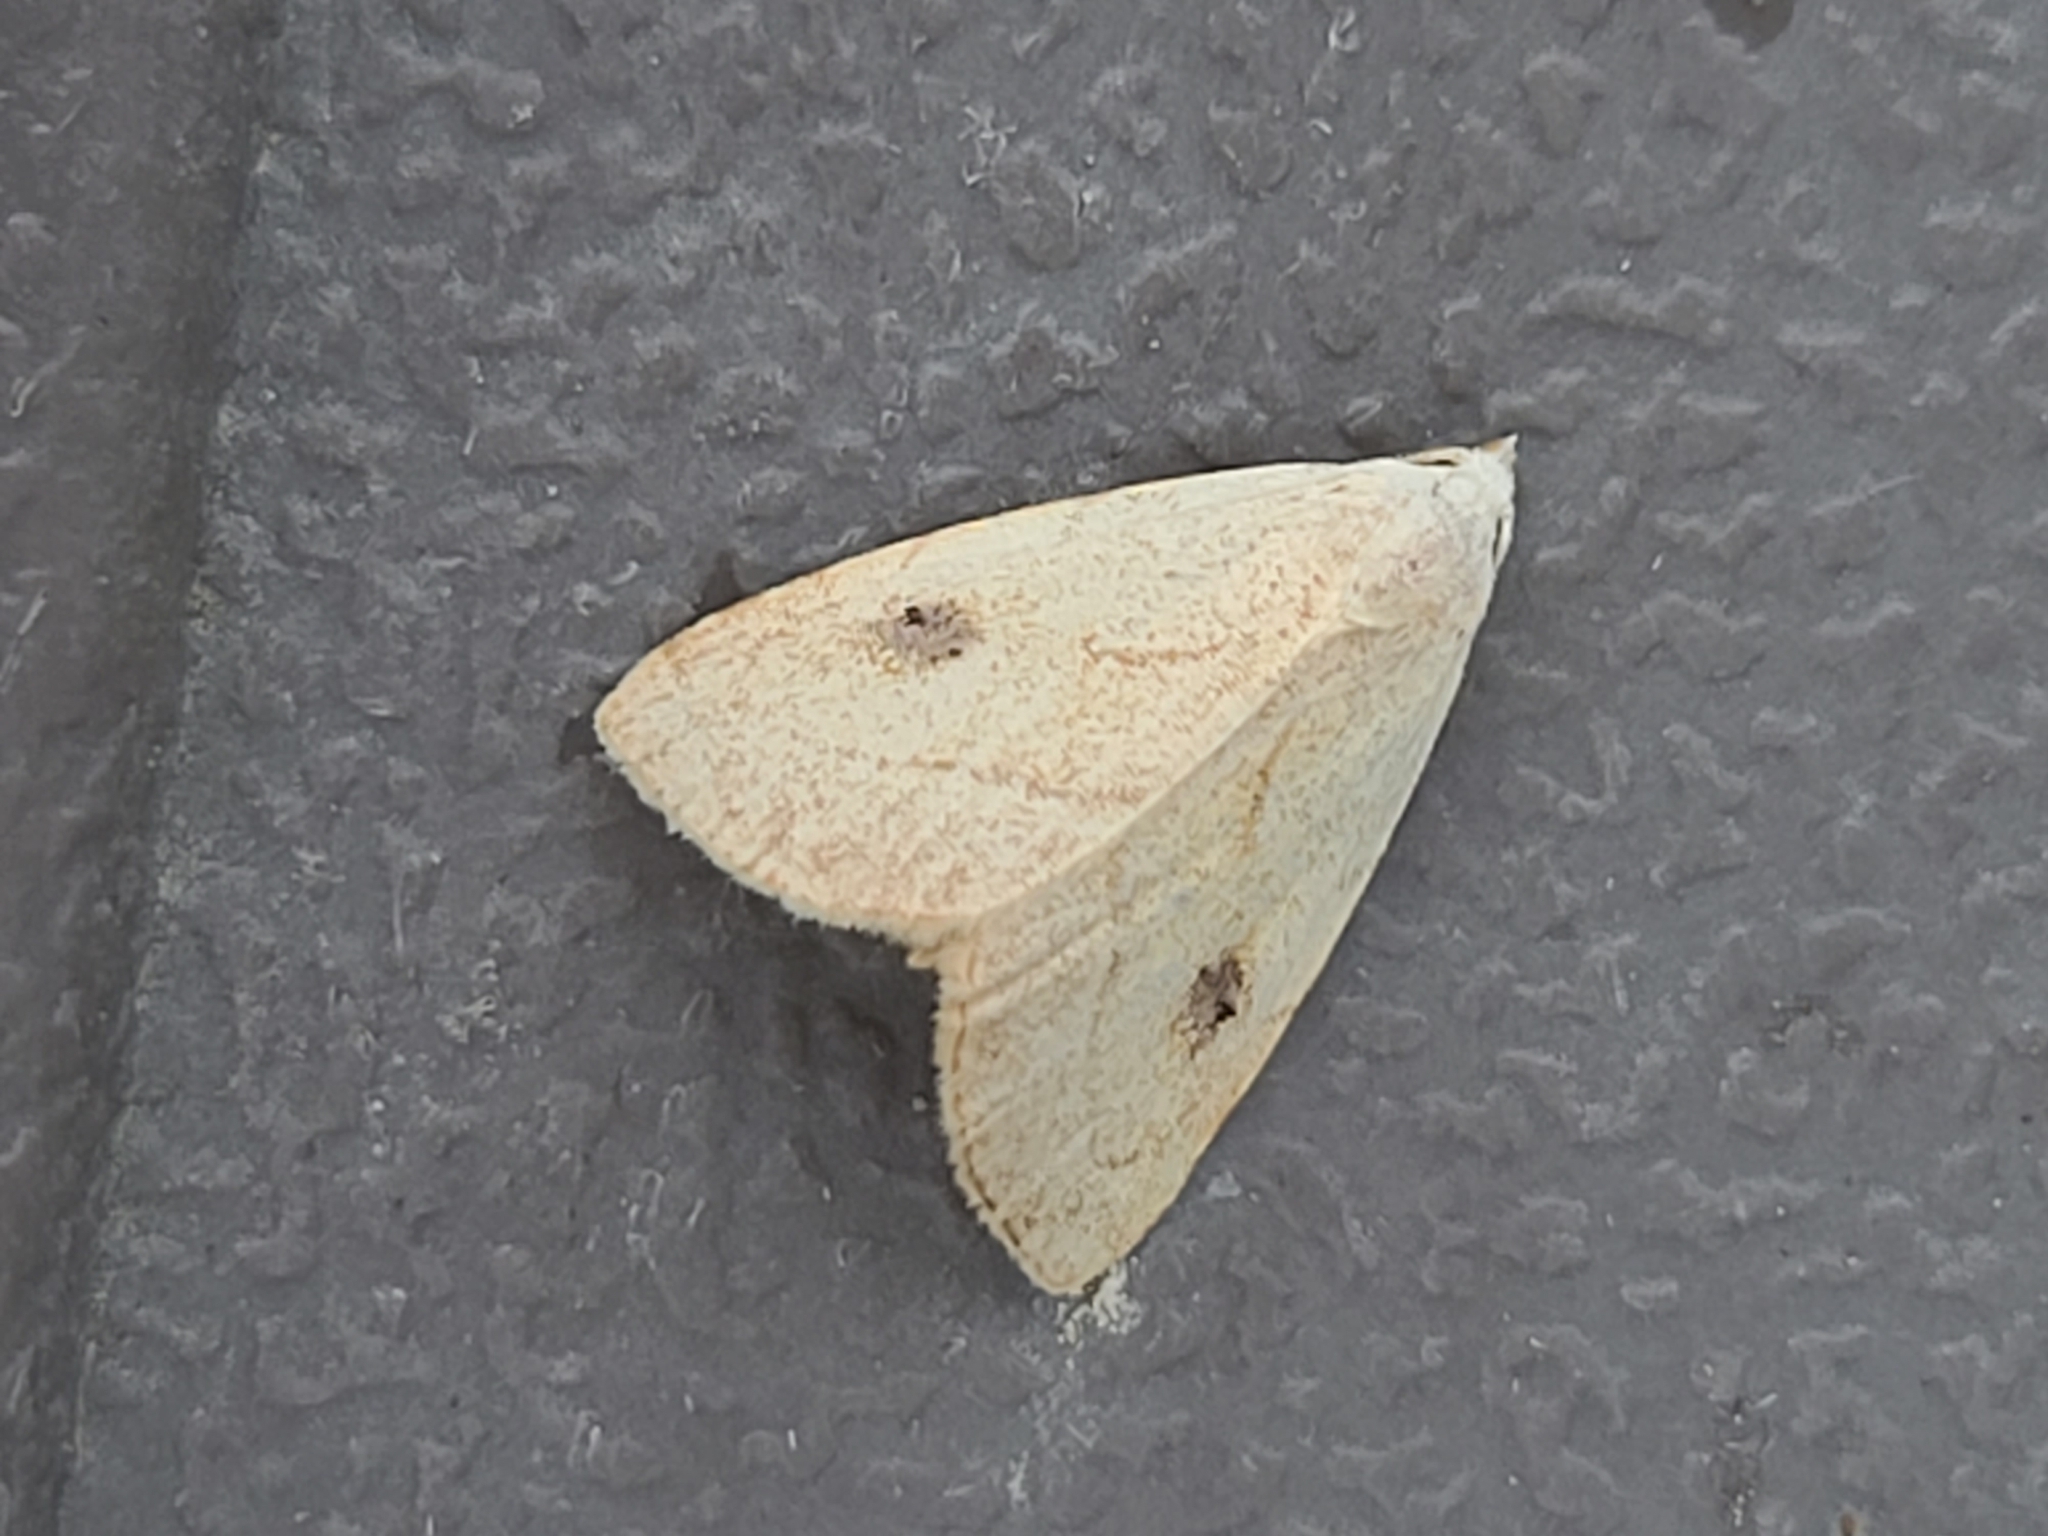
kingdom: Animalia
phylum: Arthropoda
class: Insecta
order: Lepidoptera
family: Erebidae
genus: Rivula
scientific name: Rivula propinqualis
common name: Spotted grass moth
